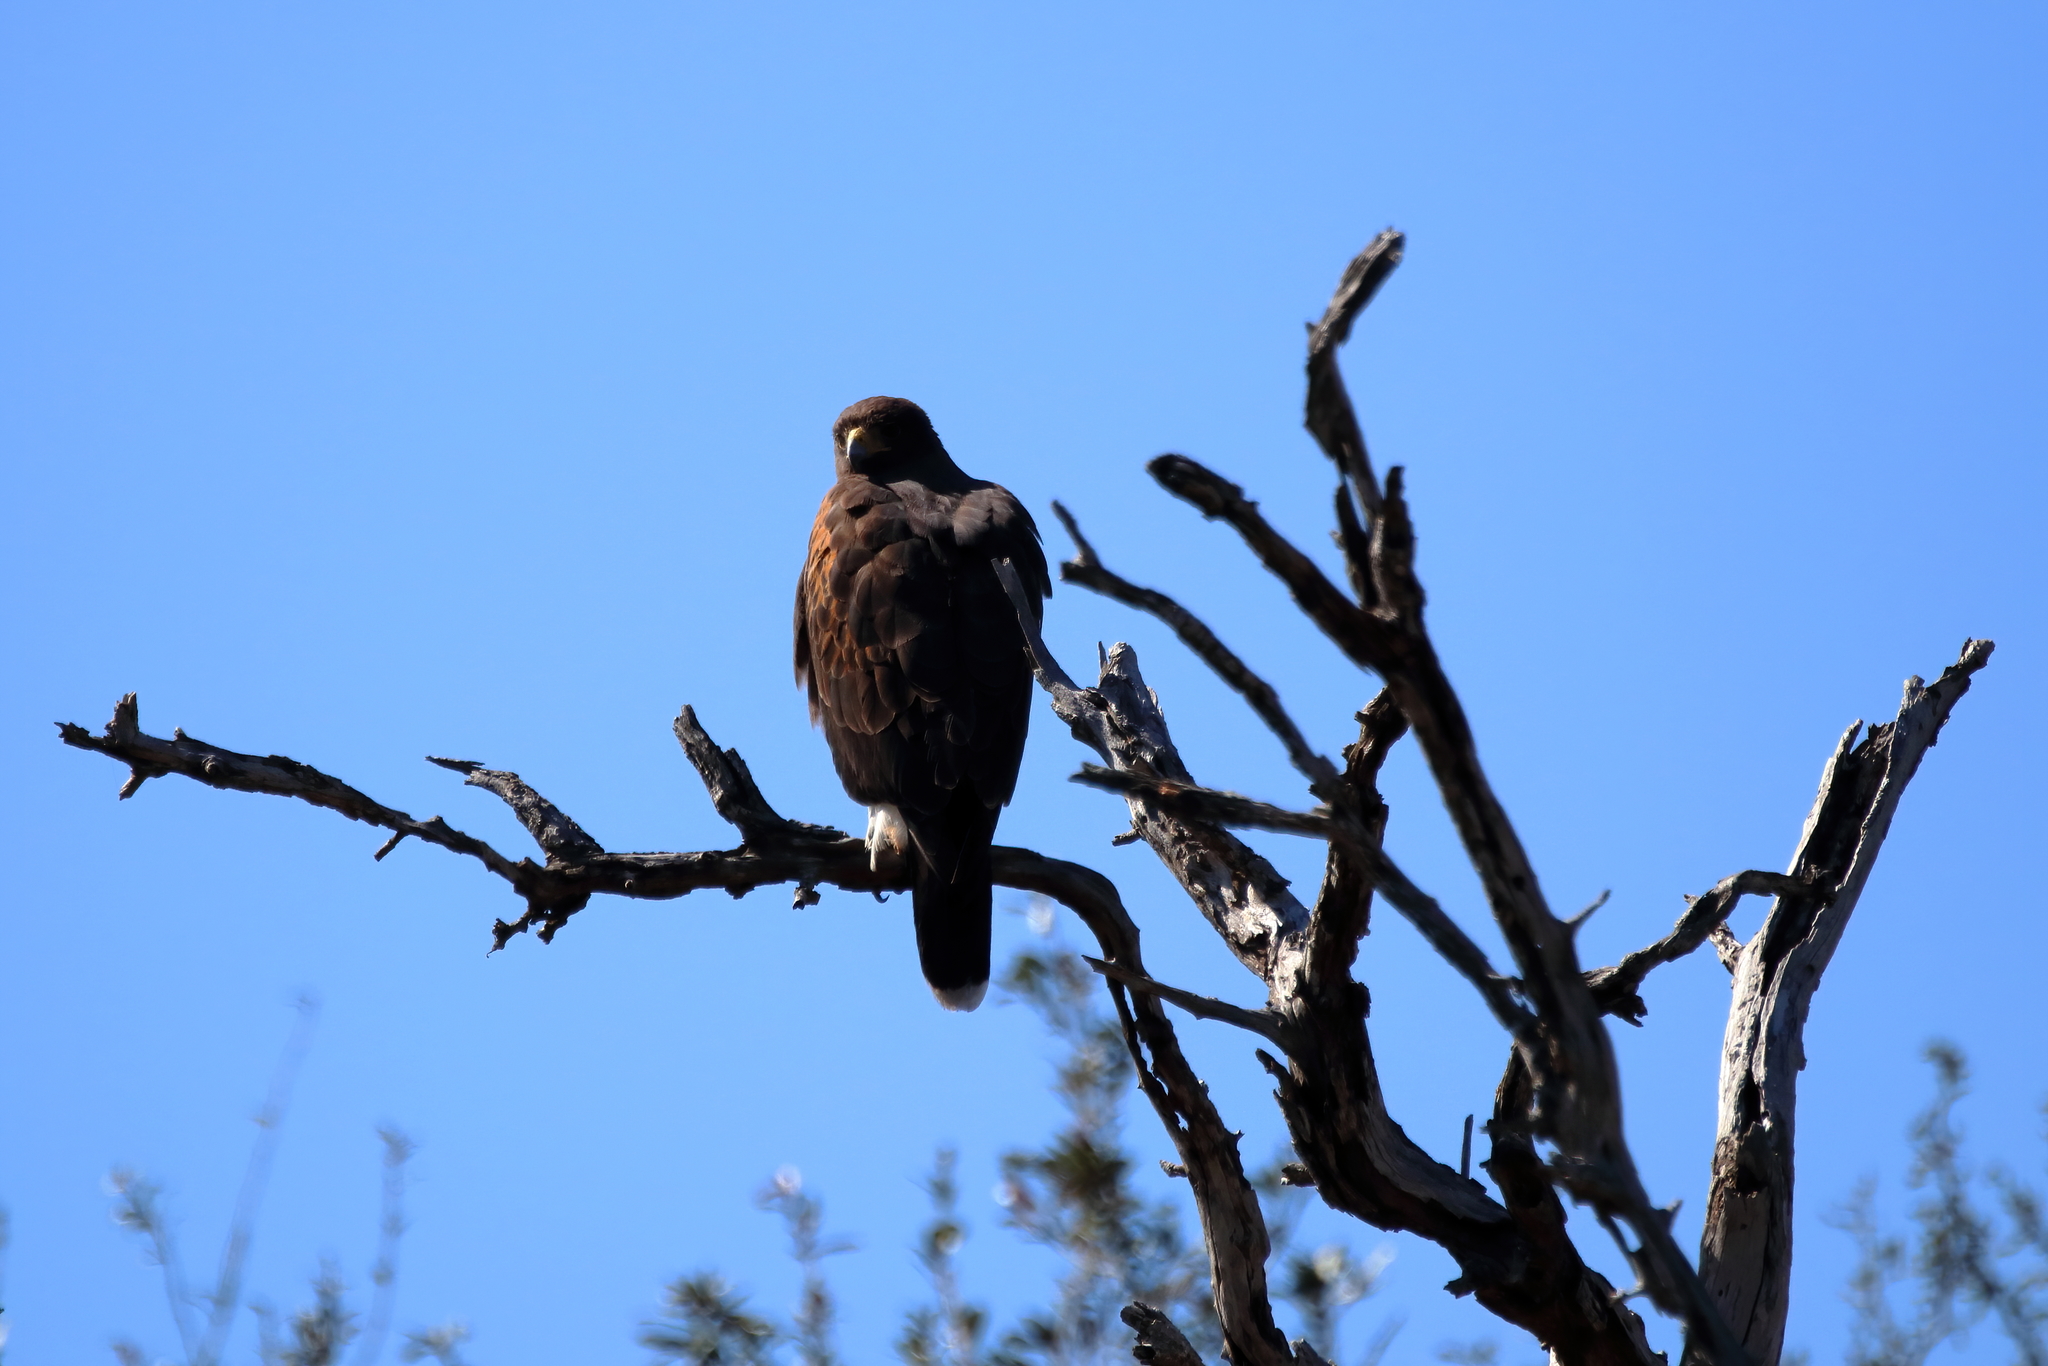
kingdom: Animalia
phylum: Chordata
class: Aves
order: Accipitriformes
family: Accipitridae
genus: Parabuteo
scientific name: Parabuteo unicinctus
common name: Harris's hawk
